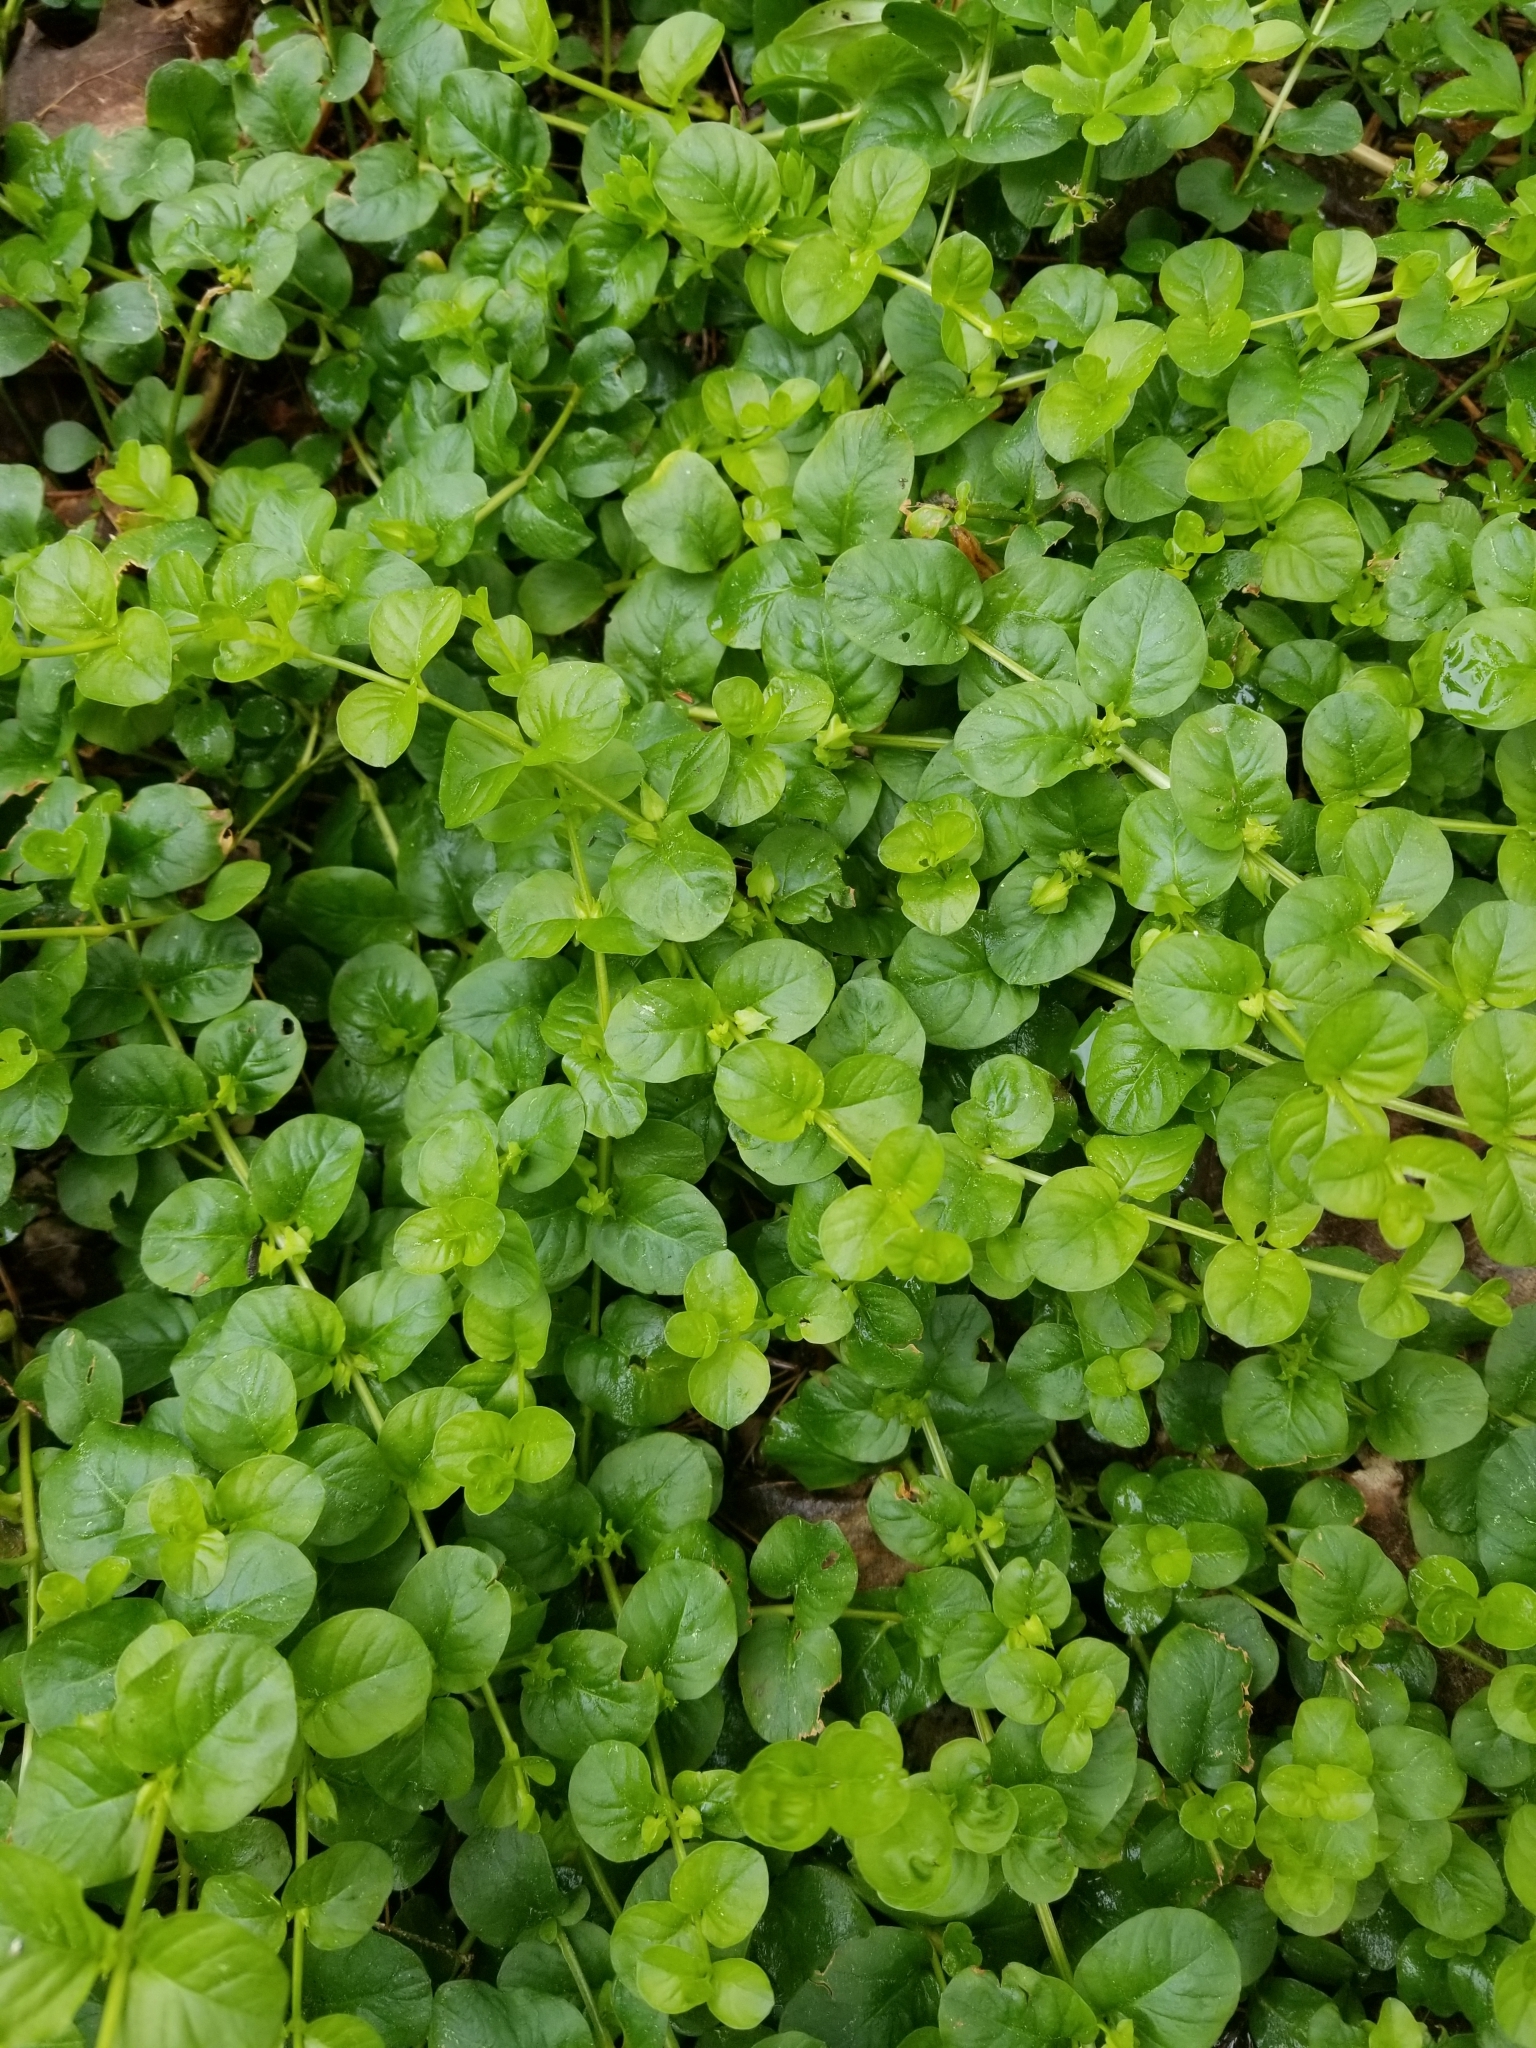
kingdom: Plantae
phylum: Tracheophyta
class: Magnoliopsida
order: Ericales
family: Primulaceae
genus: Lysimachia
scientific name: Lysimachia nummularia
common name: Moneywort
